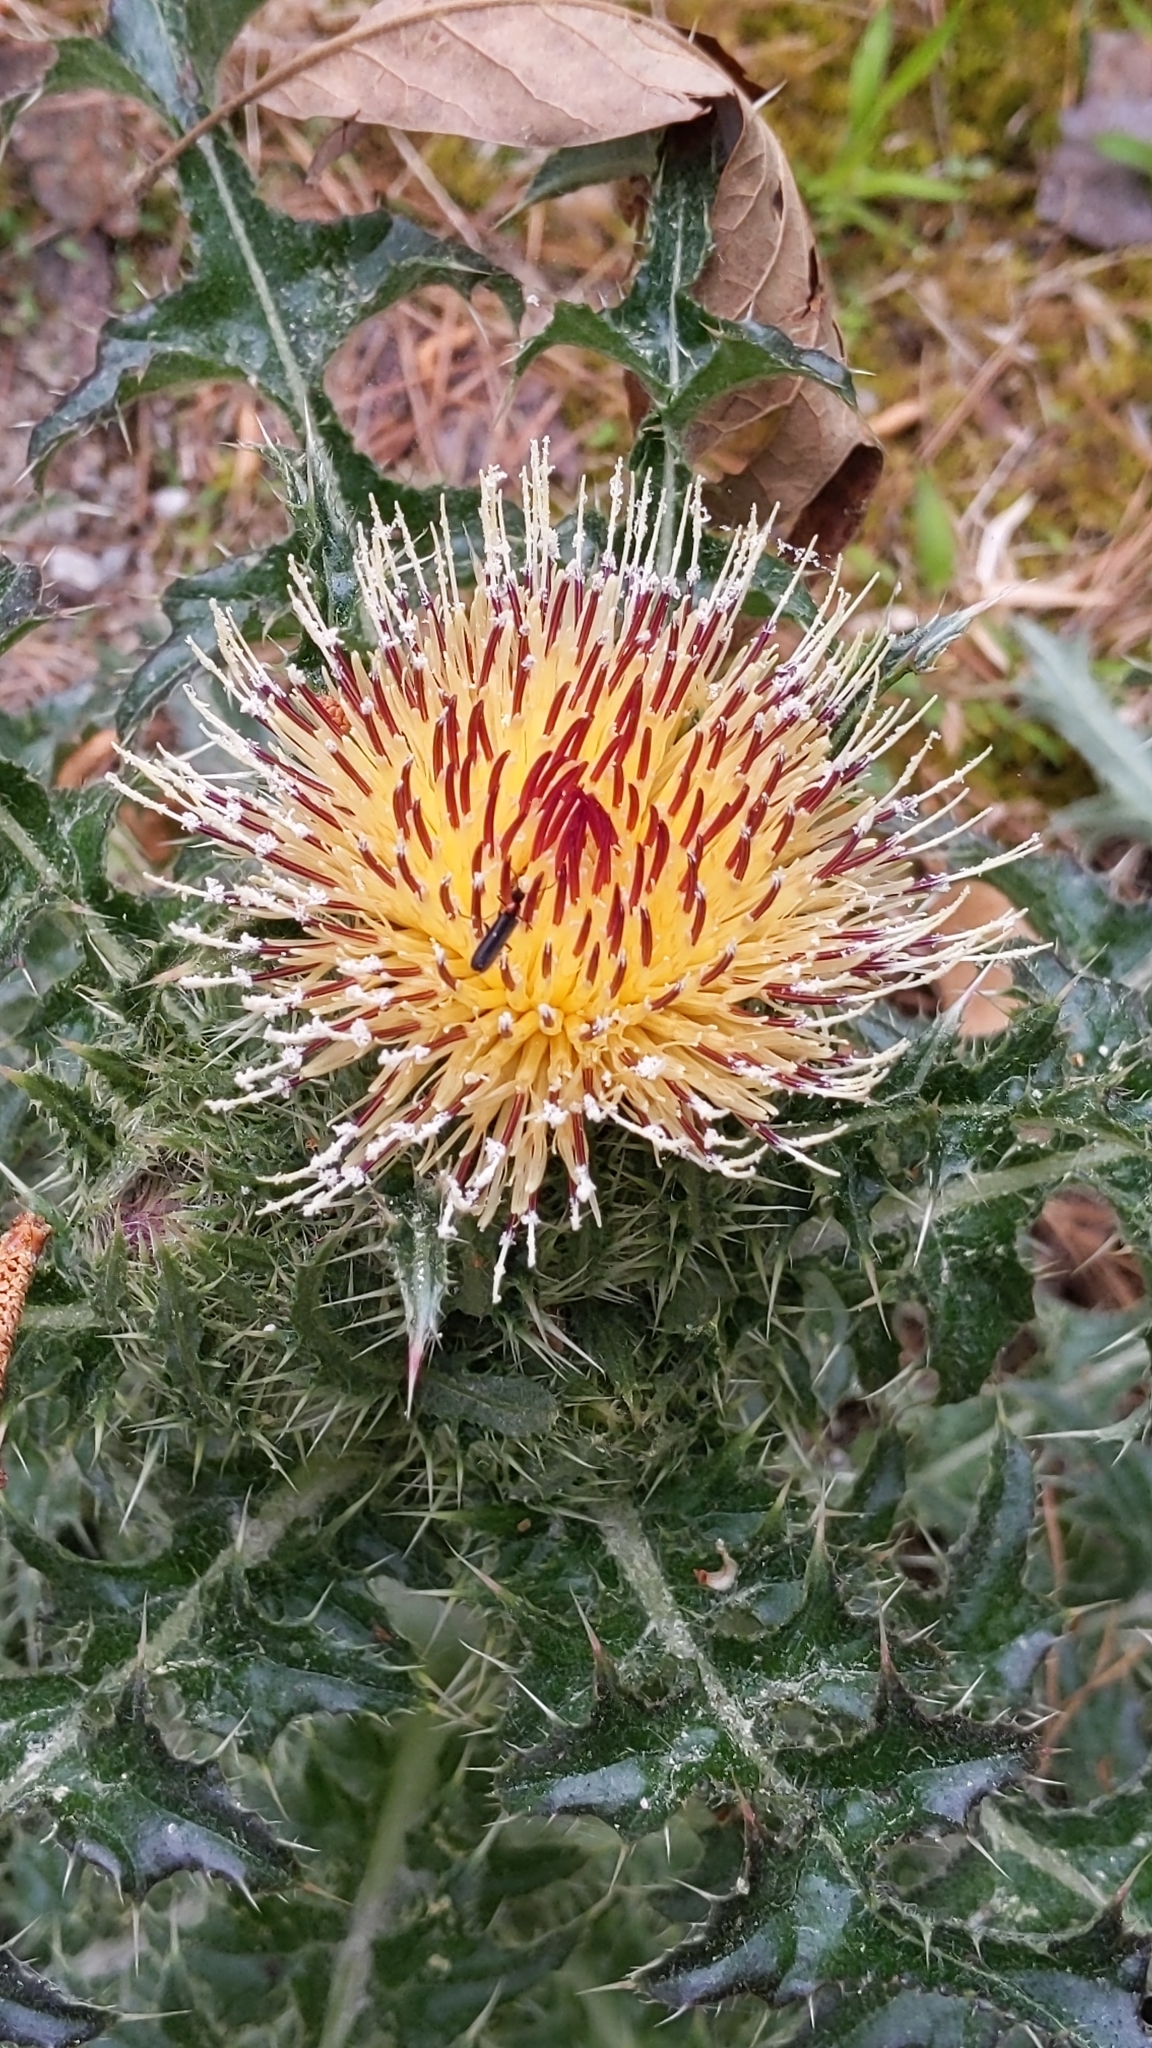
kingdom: Plantae
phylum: Tracheophyta
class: Magnoliopsida
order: Asterales
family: Asteraceae
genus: Cirsium
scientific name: Cirsium horridulum
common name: Bristly thistle
